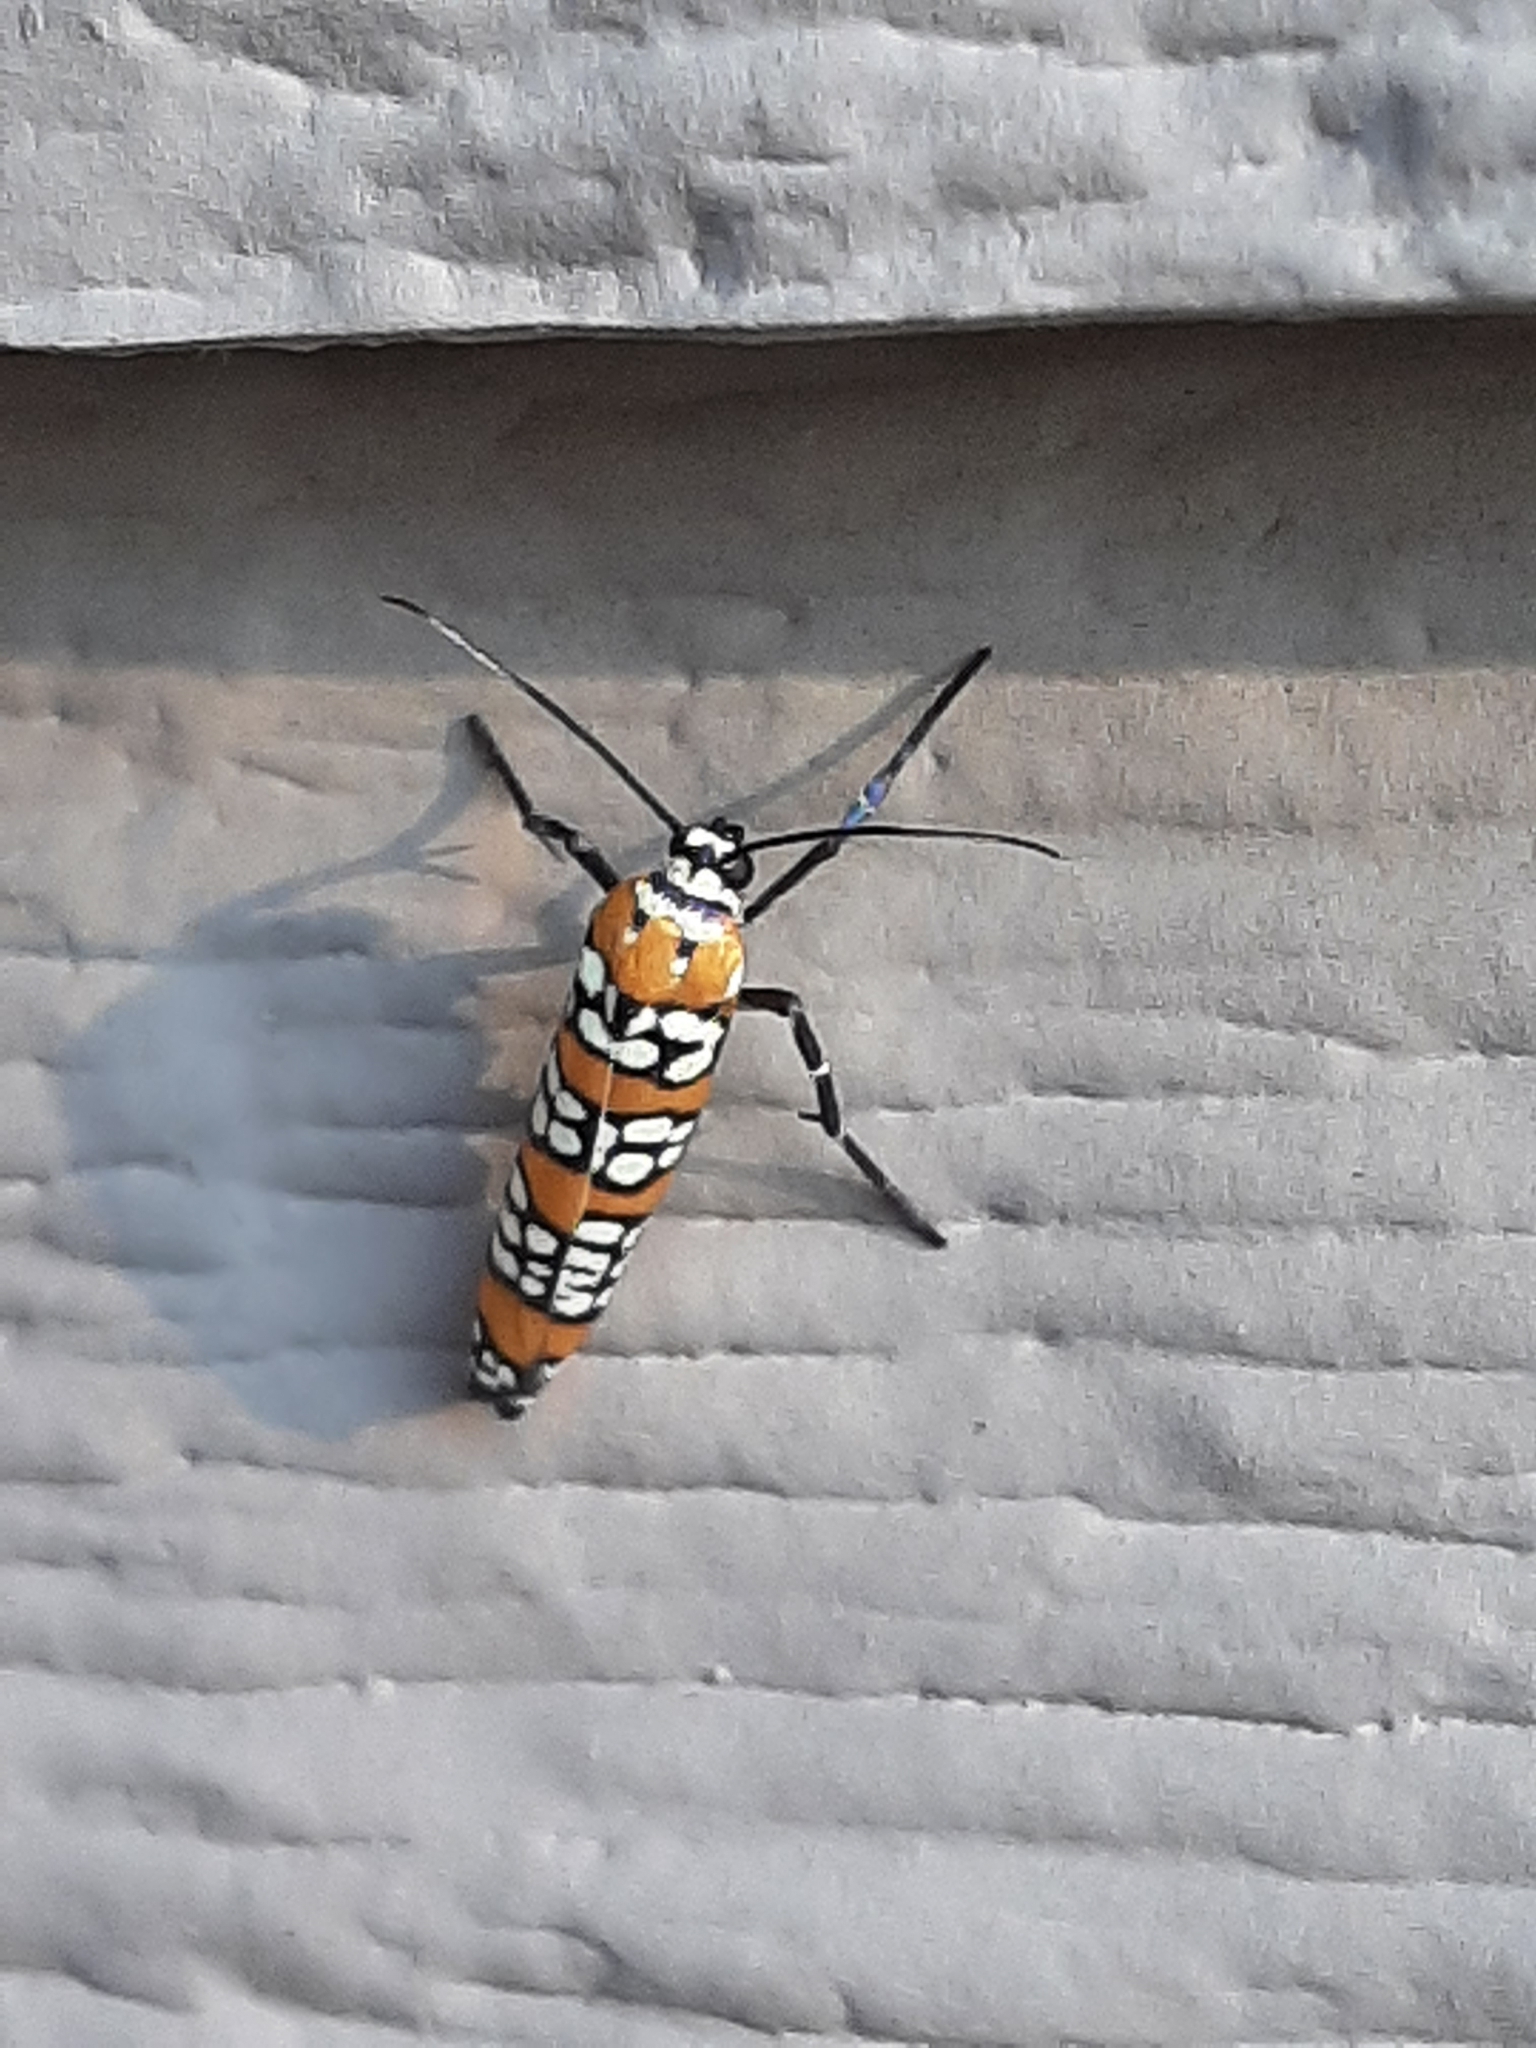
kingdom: Animalia
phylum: Arthropoda
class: Insecta
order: Lepidoptera
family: Attevidae
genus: Atteva
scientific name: Atteva punctella
